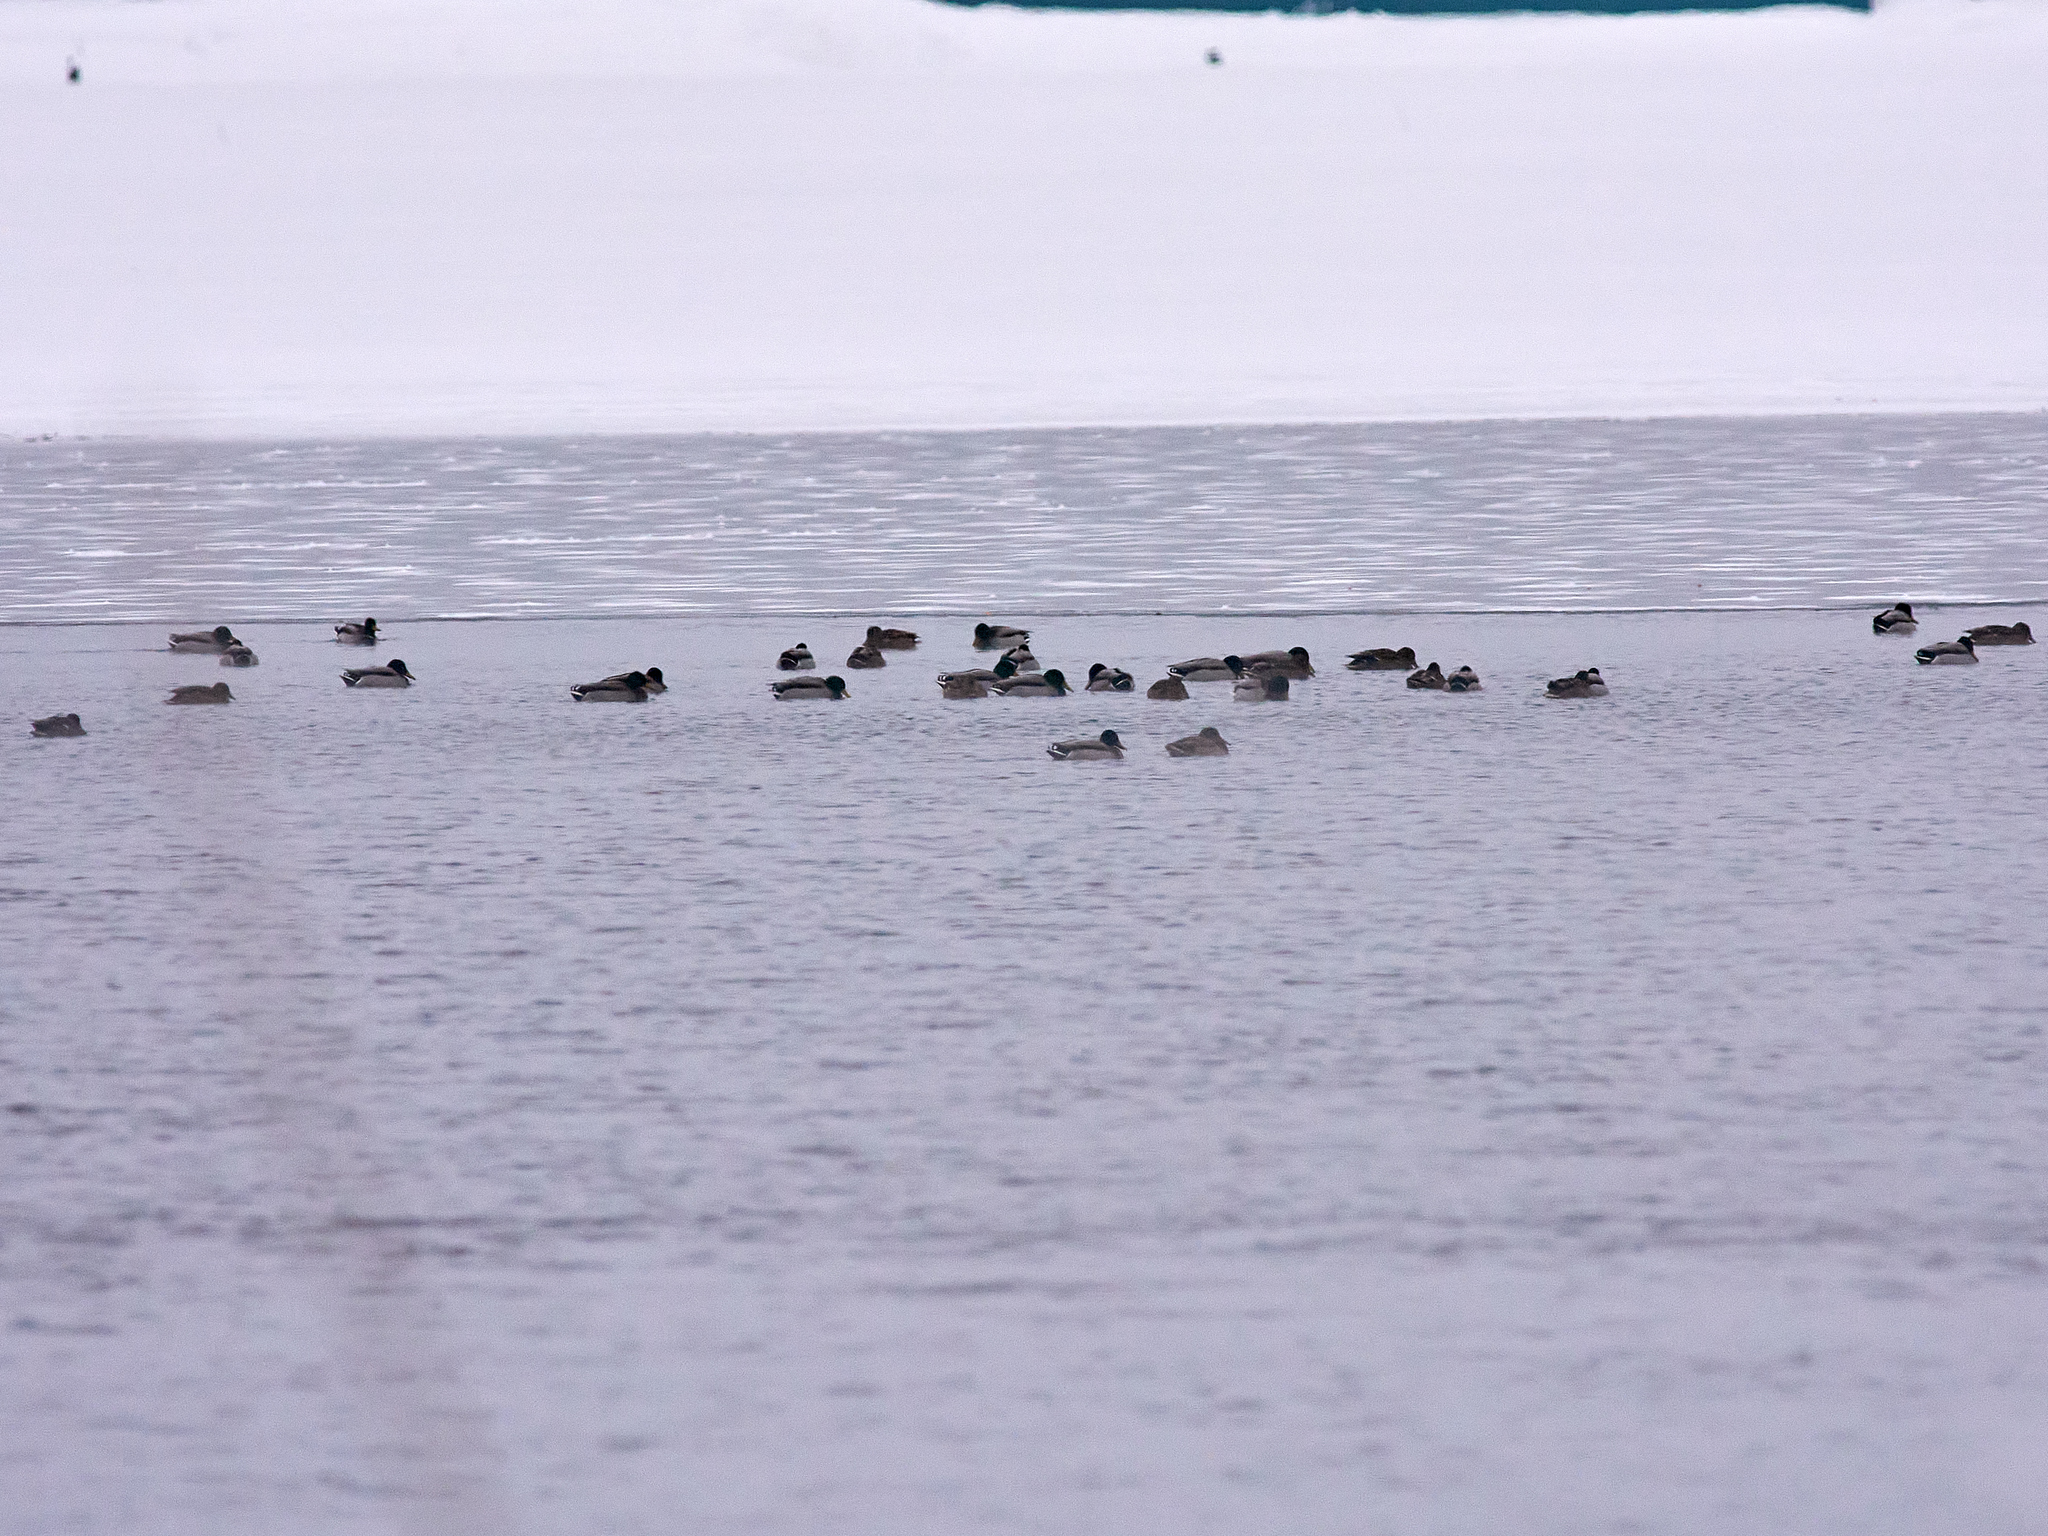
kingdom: Animalia
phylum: Chordata
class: Aves
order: Anseriformes
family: Anatidae
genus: Anas
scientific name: Anas platyrhynchos
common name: Mallard
